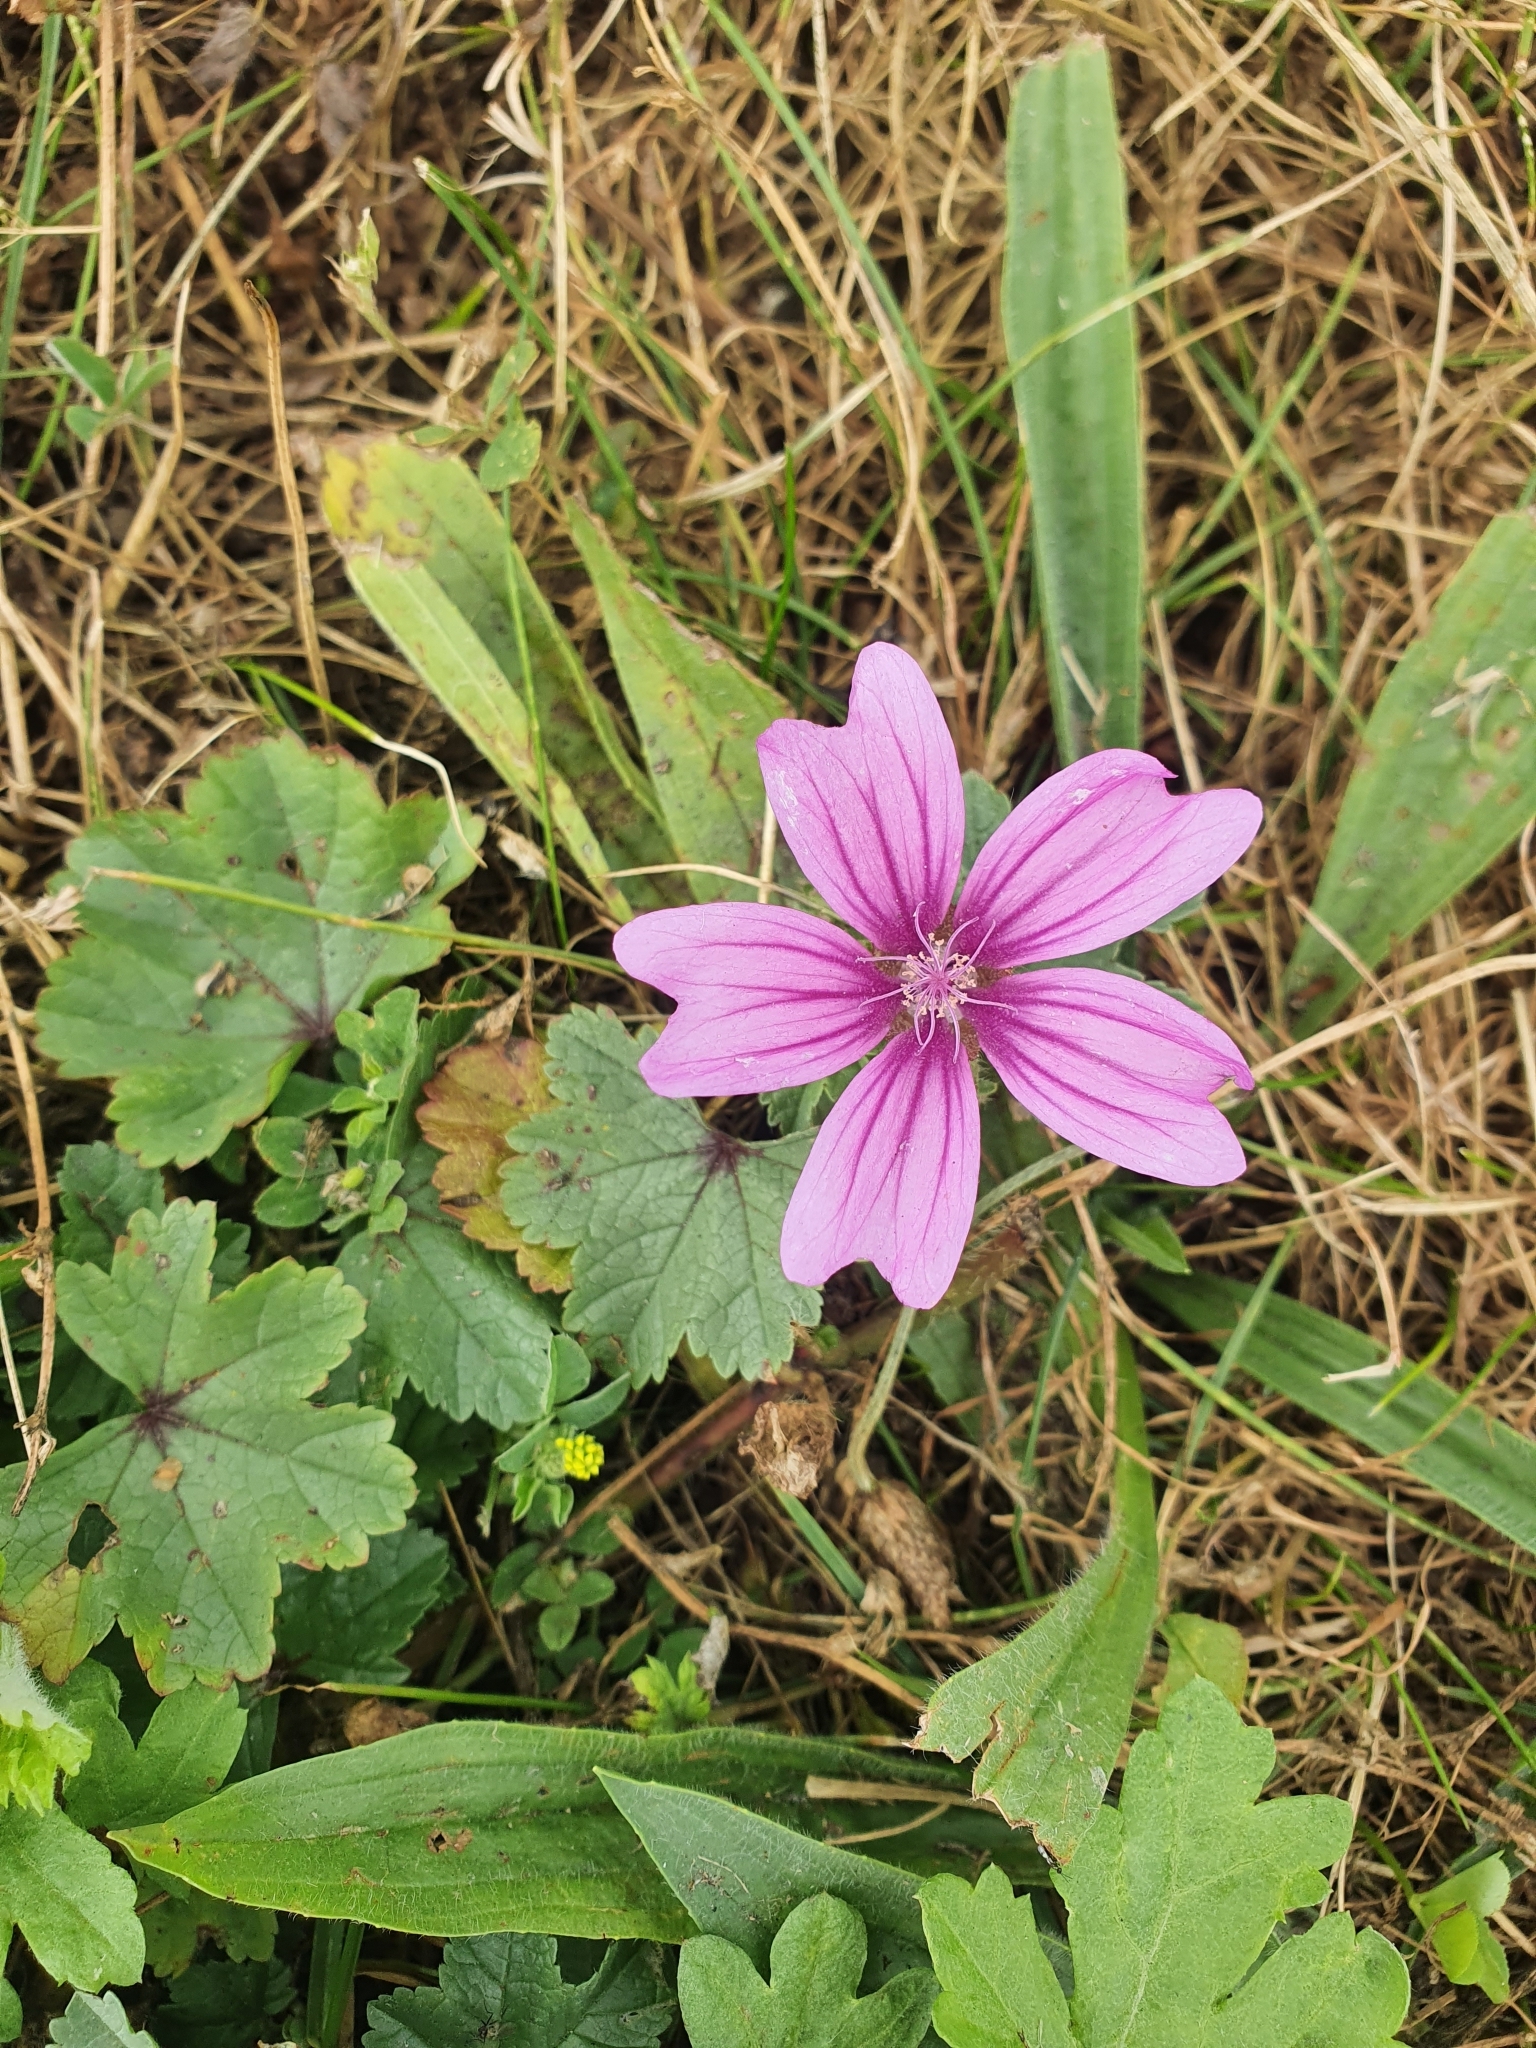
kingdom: Plantae
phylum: Tracheophyta
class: Magnoliopsida
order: Malvales
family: Malvaceae
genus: Malva
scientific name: Malva sylvestris
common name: Common mallow
